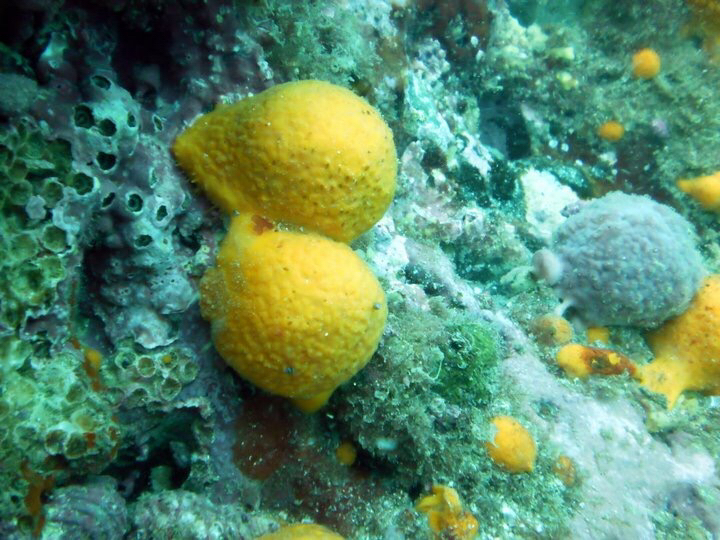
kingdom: Animalia
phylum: Porifera
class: Demospongiae
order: Tethyida
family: Tethyidae
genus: Tethya
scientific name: Tethya burtoni
